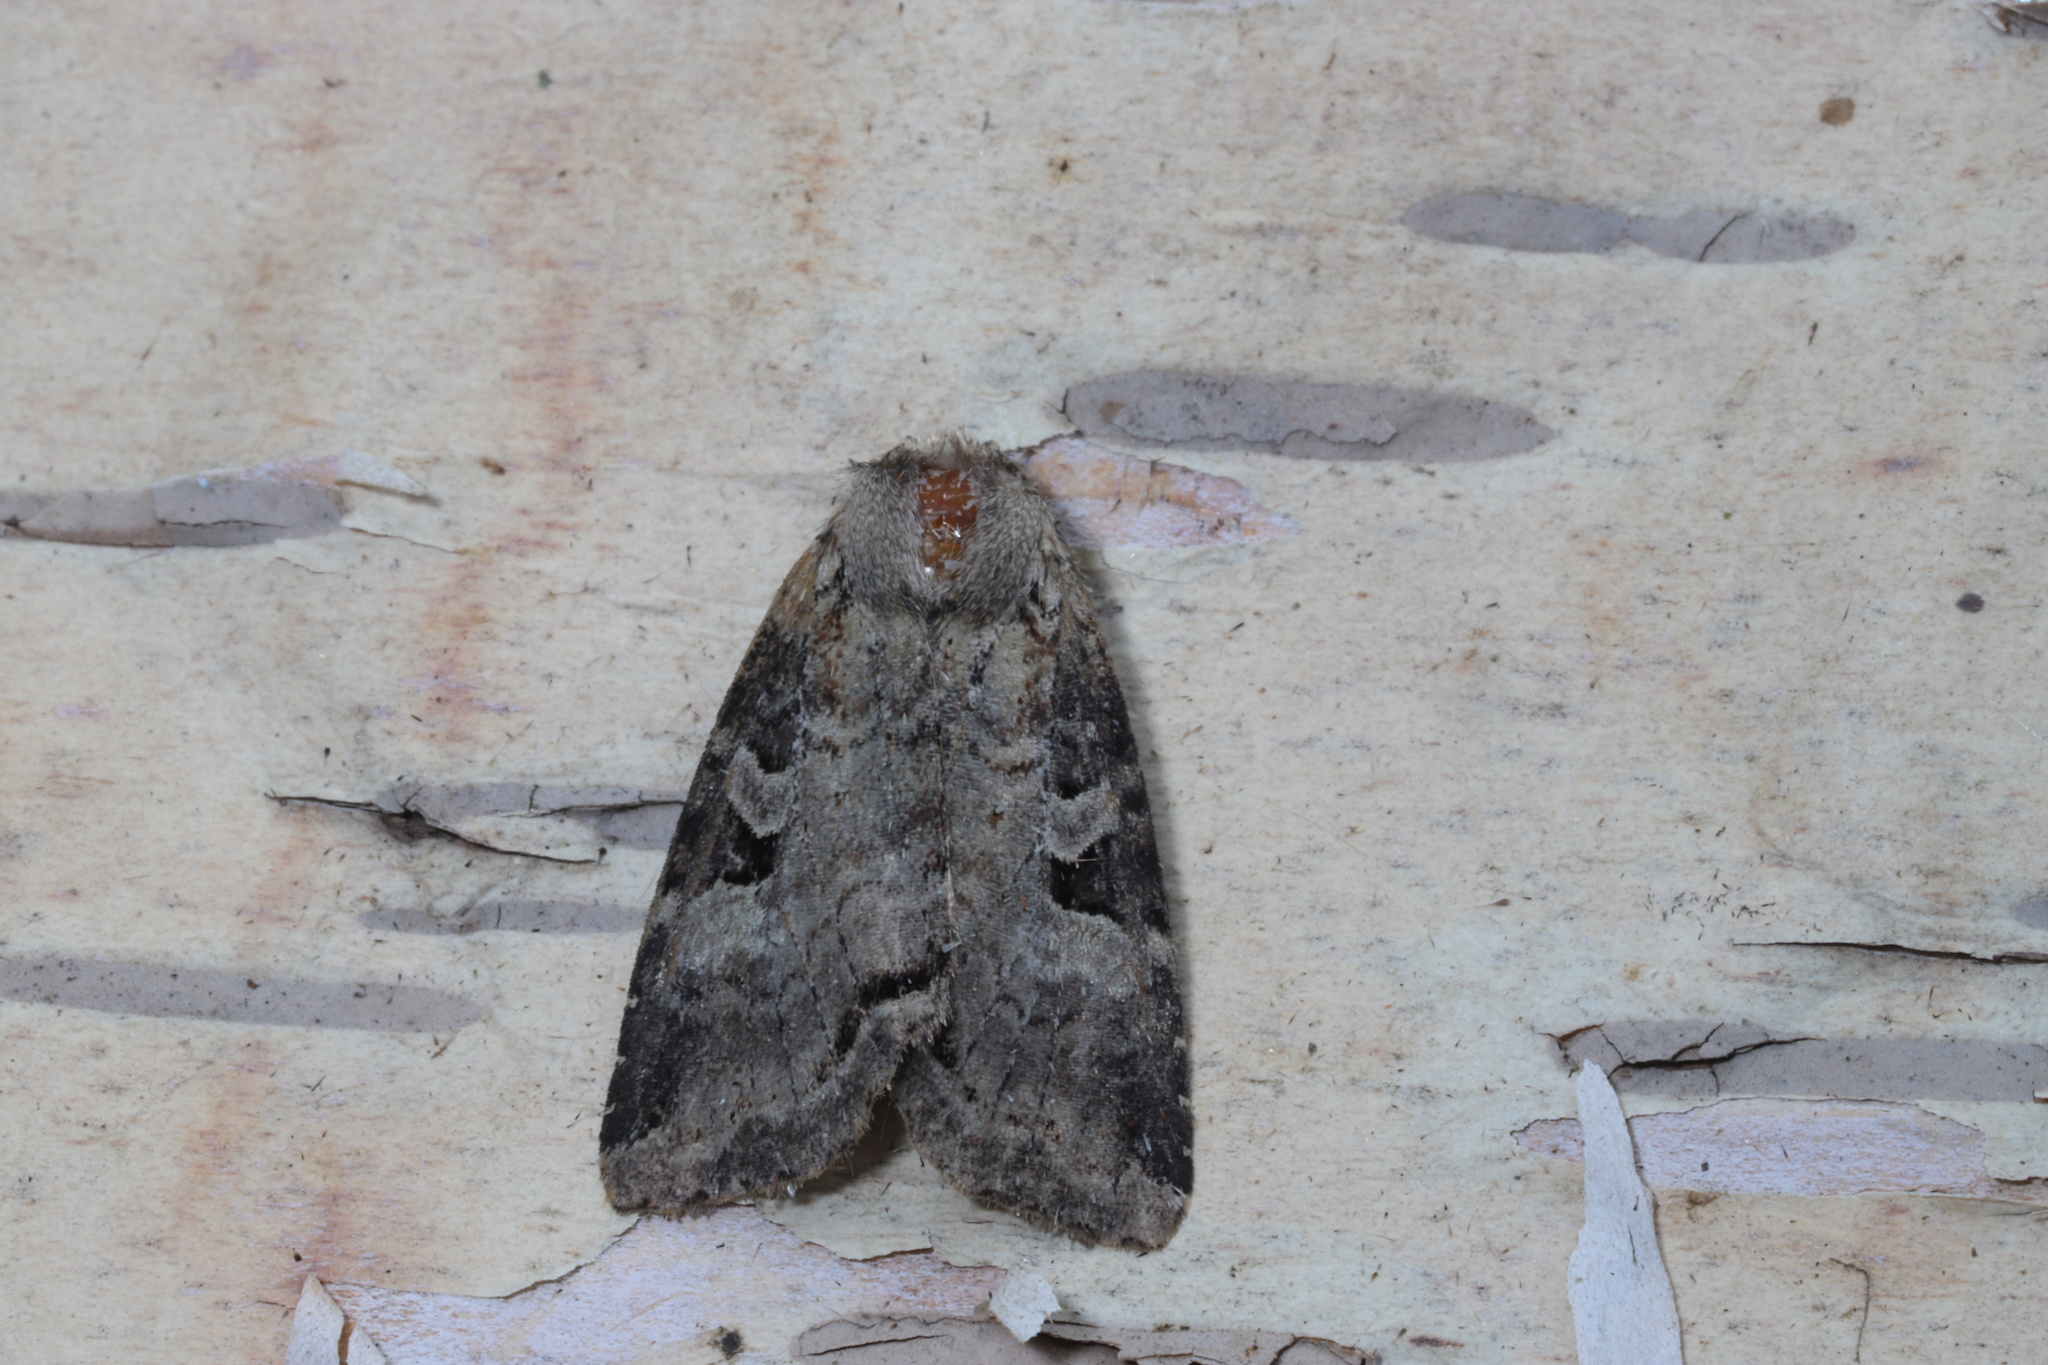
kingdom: Animalia
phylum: Arthropoda
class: Insecta
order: Lepidoptera
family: Noctuidae
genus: Hillia
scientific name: Hillia iris
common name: Iris rover moth
